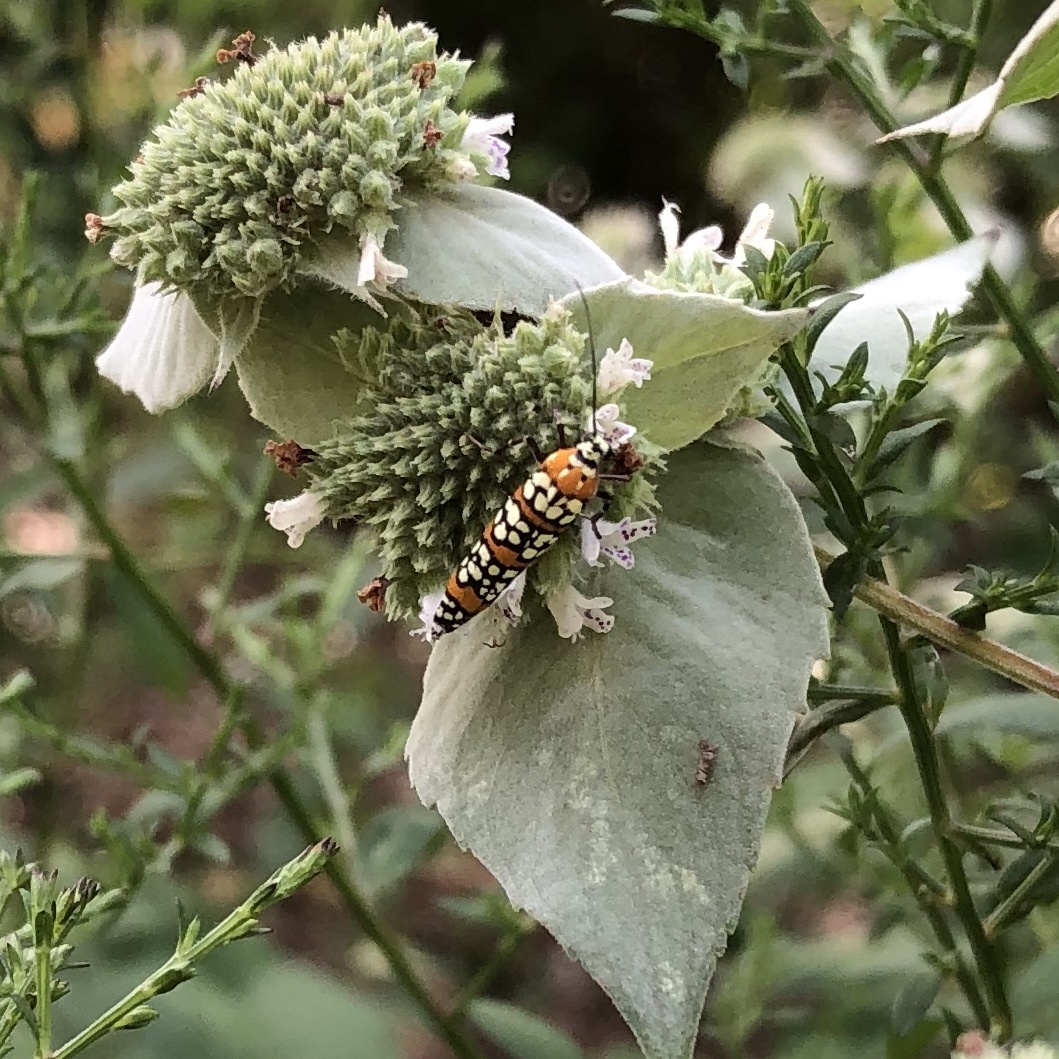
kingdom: Animalia
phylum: Arthropoda
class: Insecta
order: Lepidoptera
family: Attevidae
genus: Atteva
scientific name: Atteva punctella
